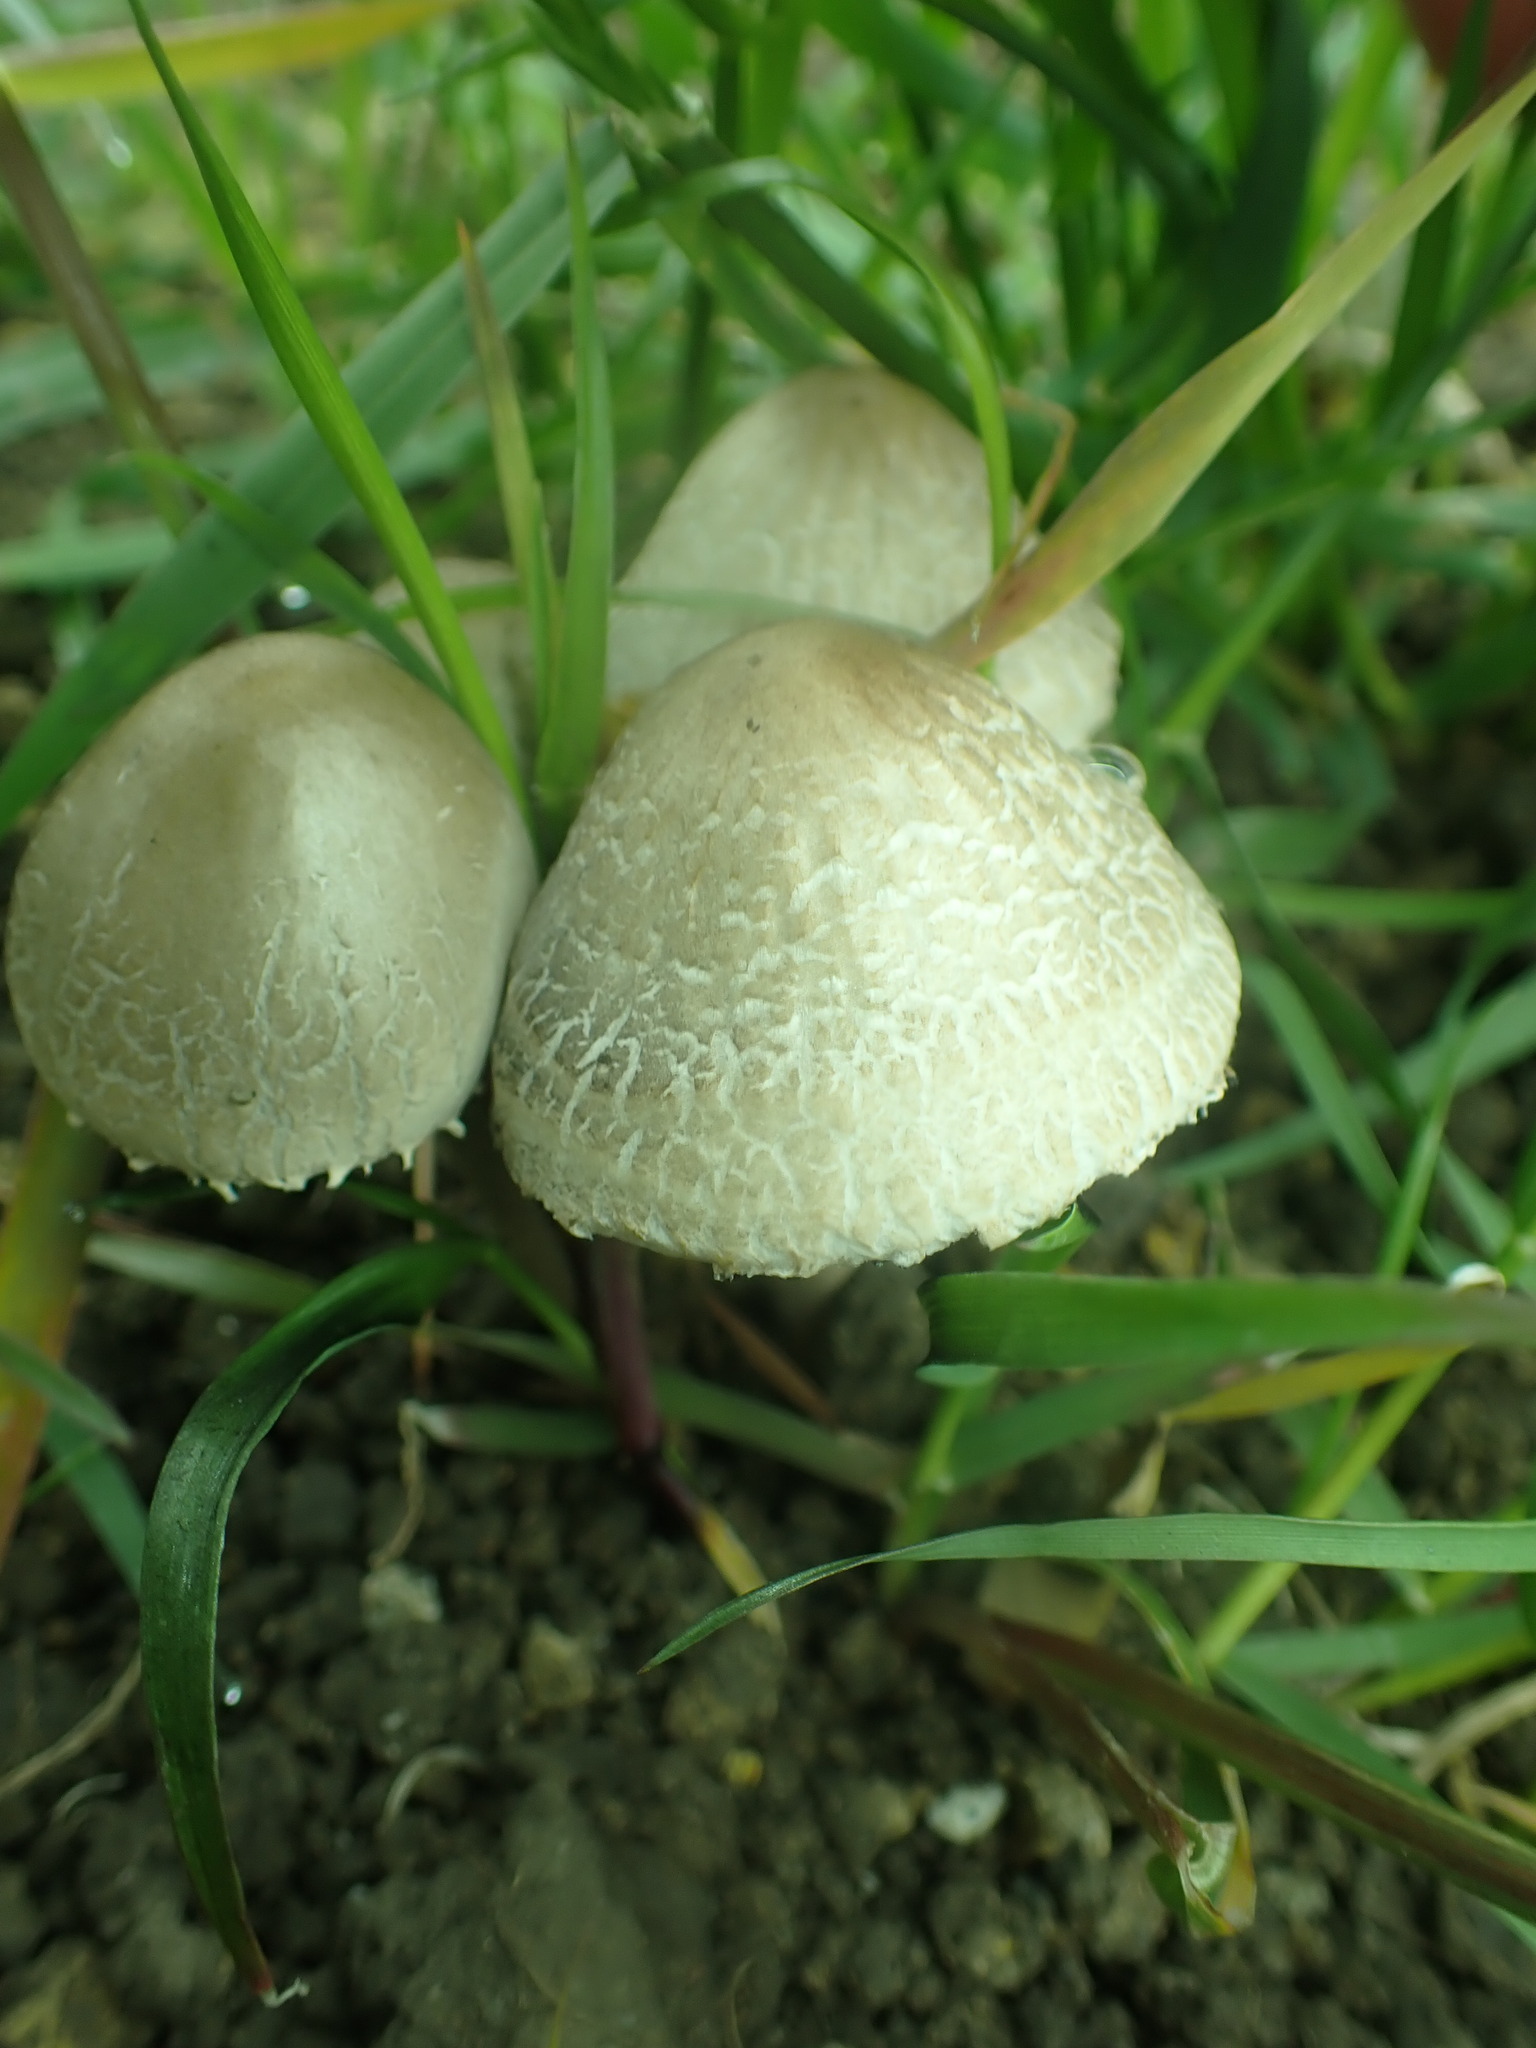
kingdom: Fungi
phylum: Basidiomycota
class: Agaricomycetes
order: Agaricales
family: Bolbitiaceae
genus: Panaeolus
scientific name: Panaeolus papilionaceus
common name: Petticoat mottlegill
